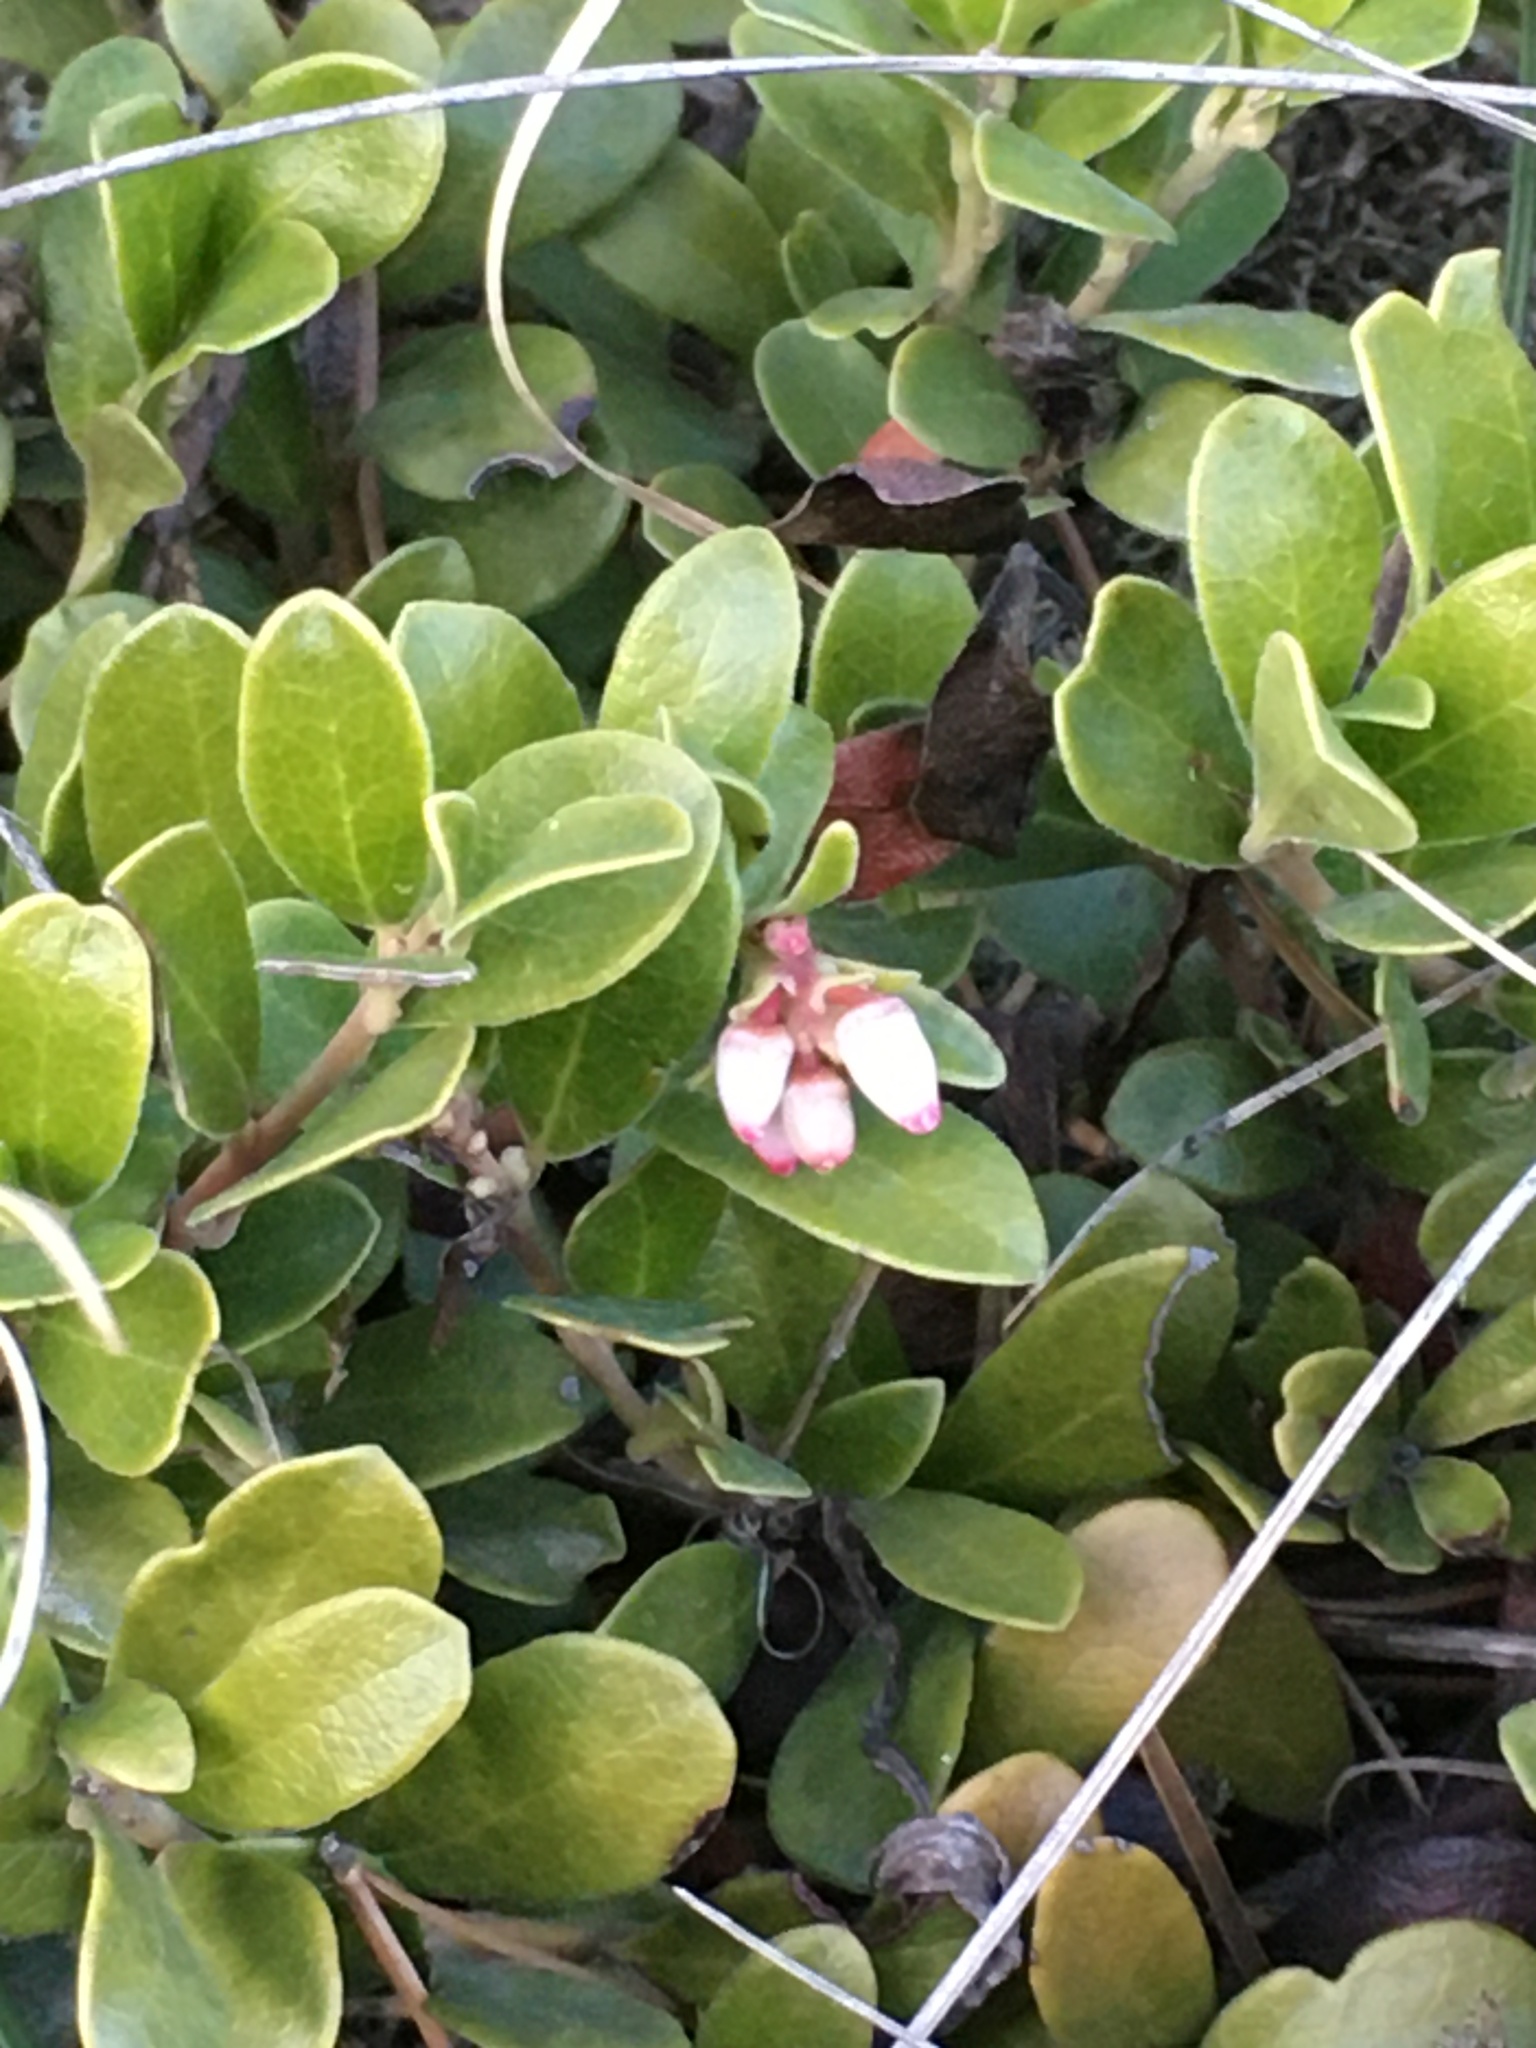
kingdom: Plantae
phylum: Tracheophyta
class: Magnoliopsida
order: Ericales
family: Ericaceae
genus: Arctostaphylos
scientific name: Arctostaphylos uva-ursi
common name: Bearberry
